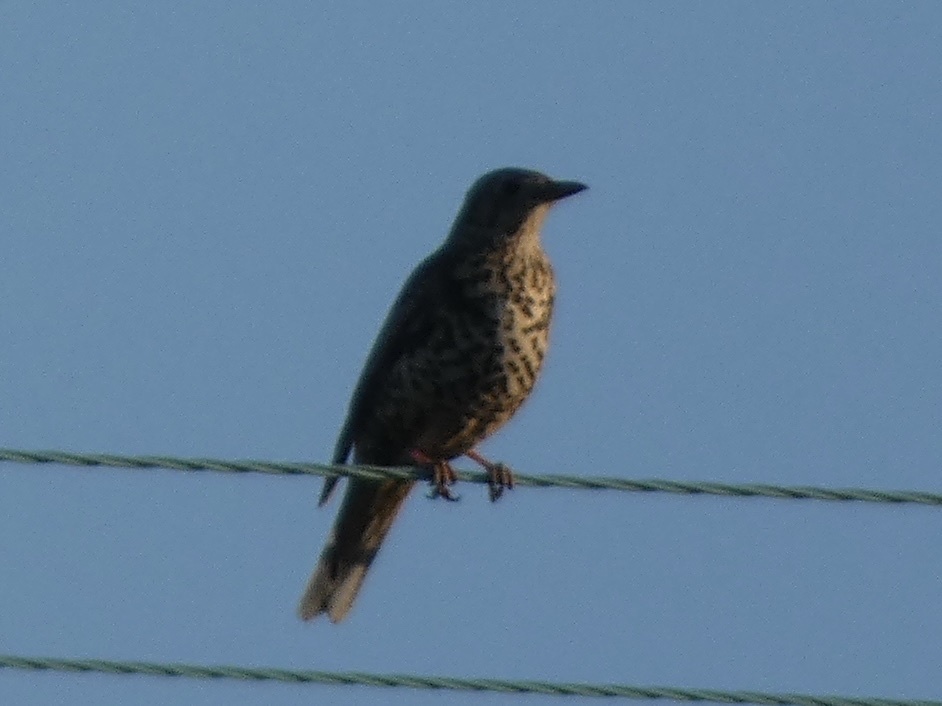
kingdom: Animalia
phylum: Chordata
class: Aves
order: Passeriformes
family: Turdidae
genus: Turdus
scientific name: Turdus viscivorus
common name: Mistle thrush
